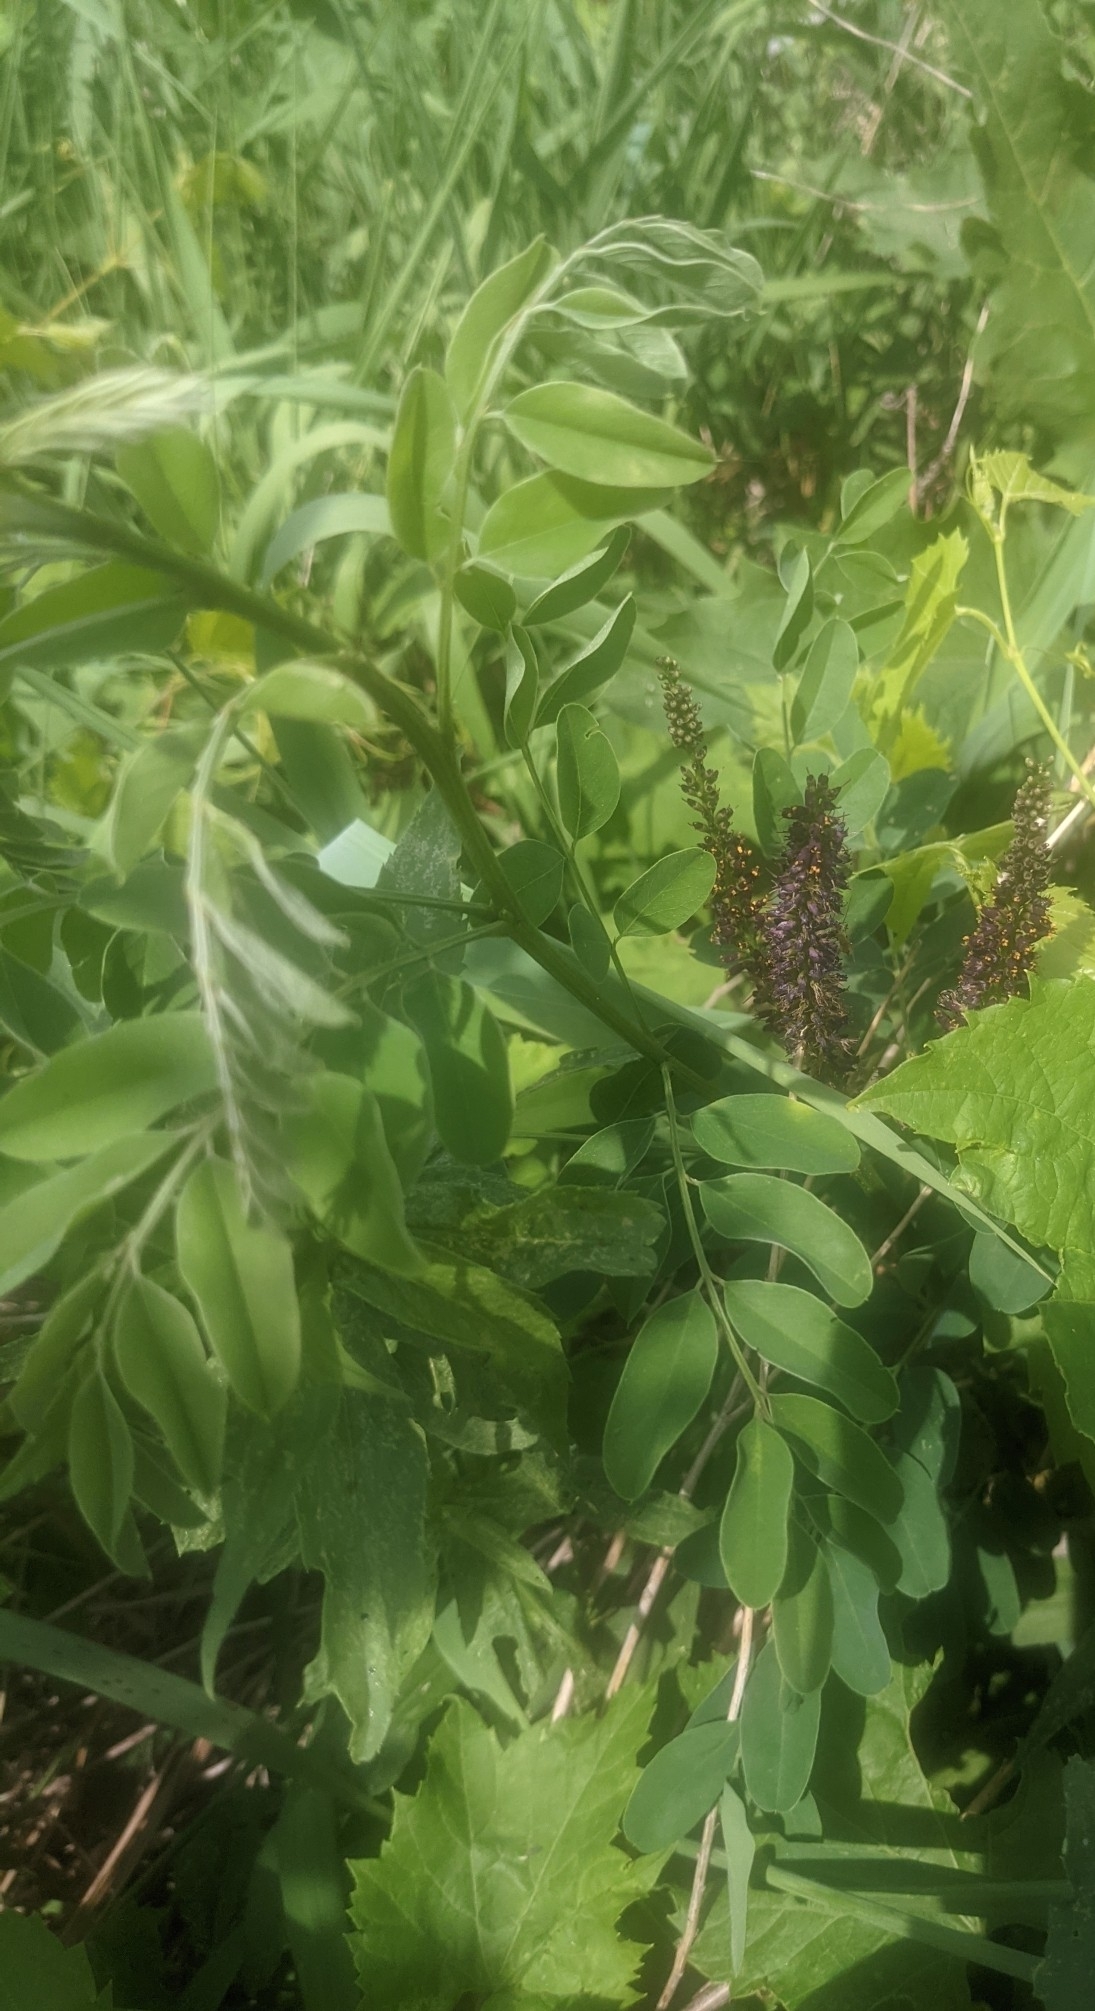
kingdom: Plantae
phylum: Tracheophyta
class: Magnoliopsida
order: Fabales
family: Fabaceae
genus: Amorpha
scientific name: Amorpha fruticosa
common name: False indigo
